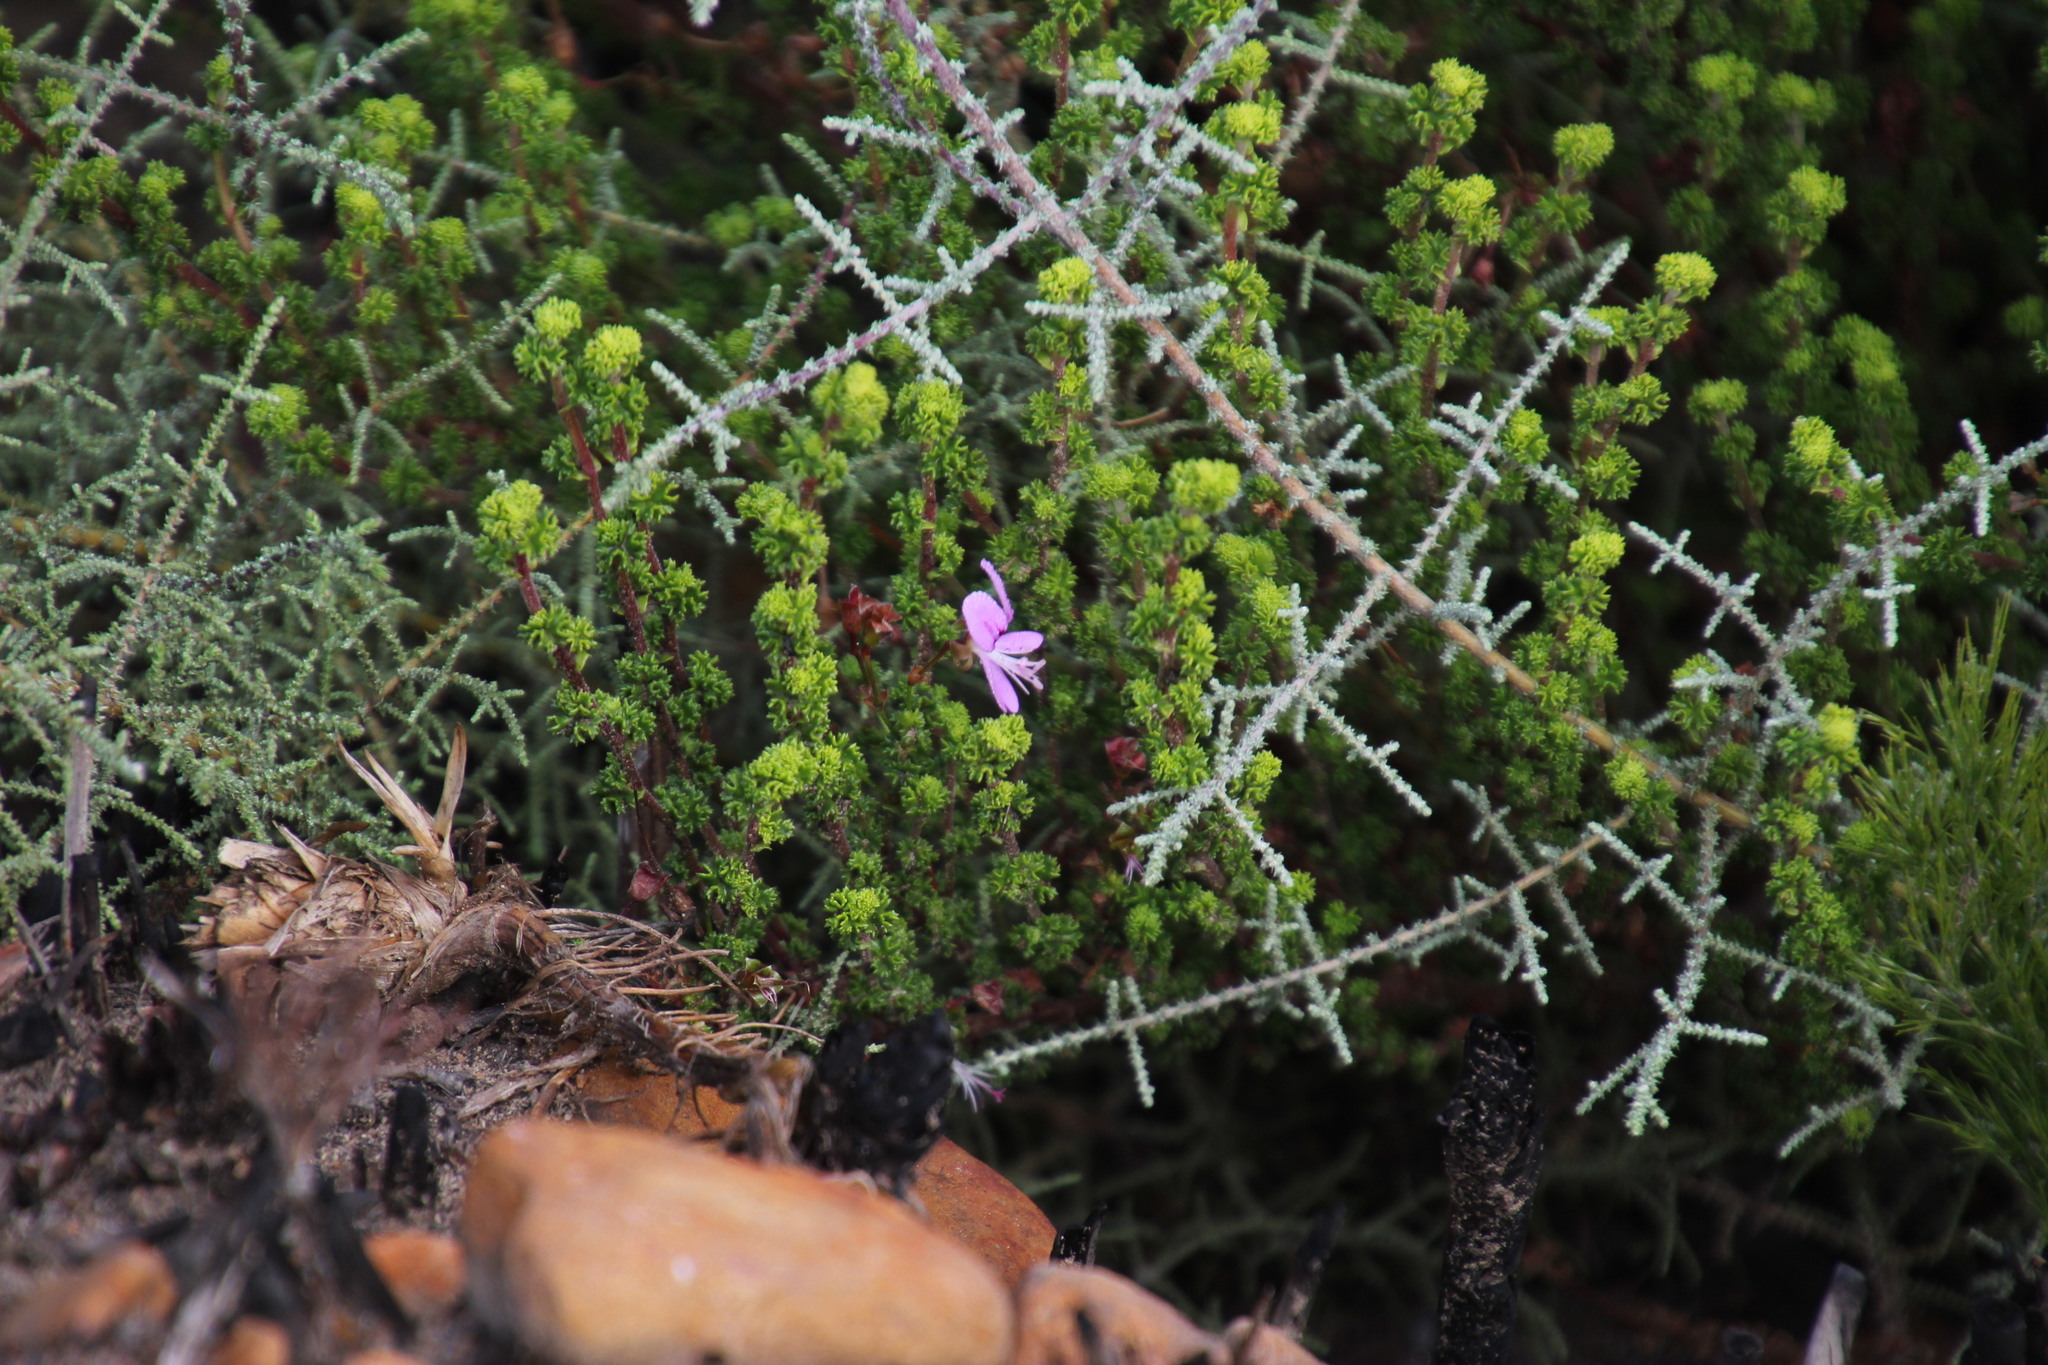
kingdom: Plantae
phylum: Tracheophyta
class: Magnoliopsida
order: Geraniales
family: Geraniaceae
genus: Pelargonium
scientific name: Pelargonium crispum
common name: Crisped-leaf pelargonium
